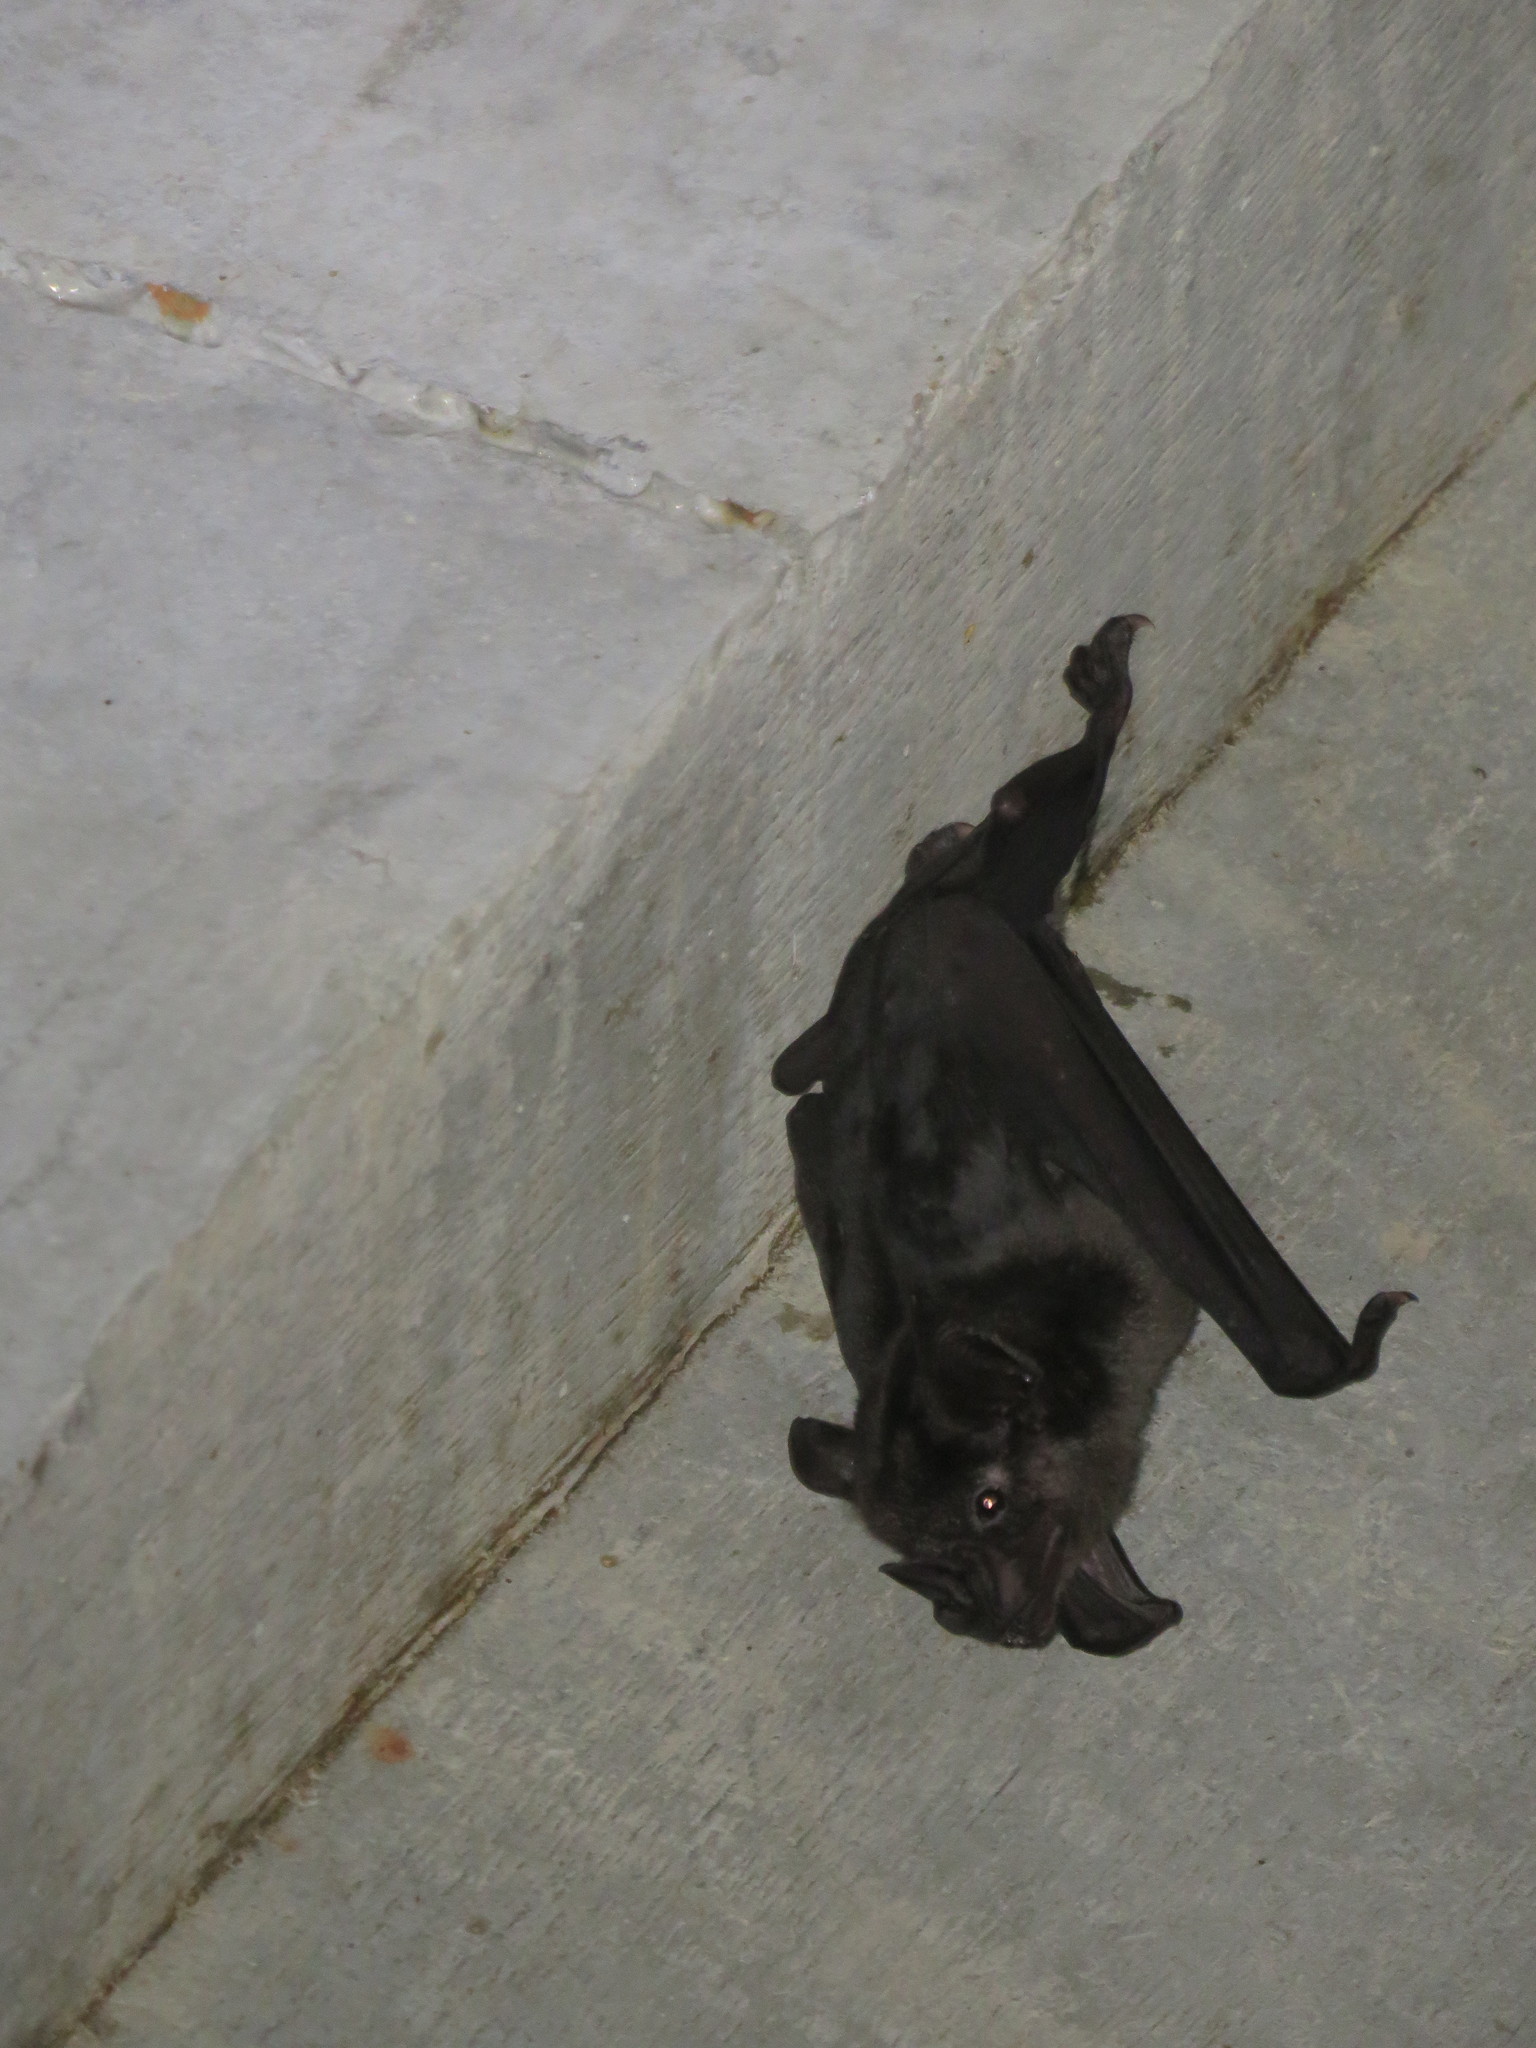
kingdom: Animalia
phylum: Chordata
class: Mammalia
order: Chiroptera
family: Phyllostomidae
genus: Phyllostomus
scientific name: Phyllostomus hastatus
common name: Greater spear-nosed bat
